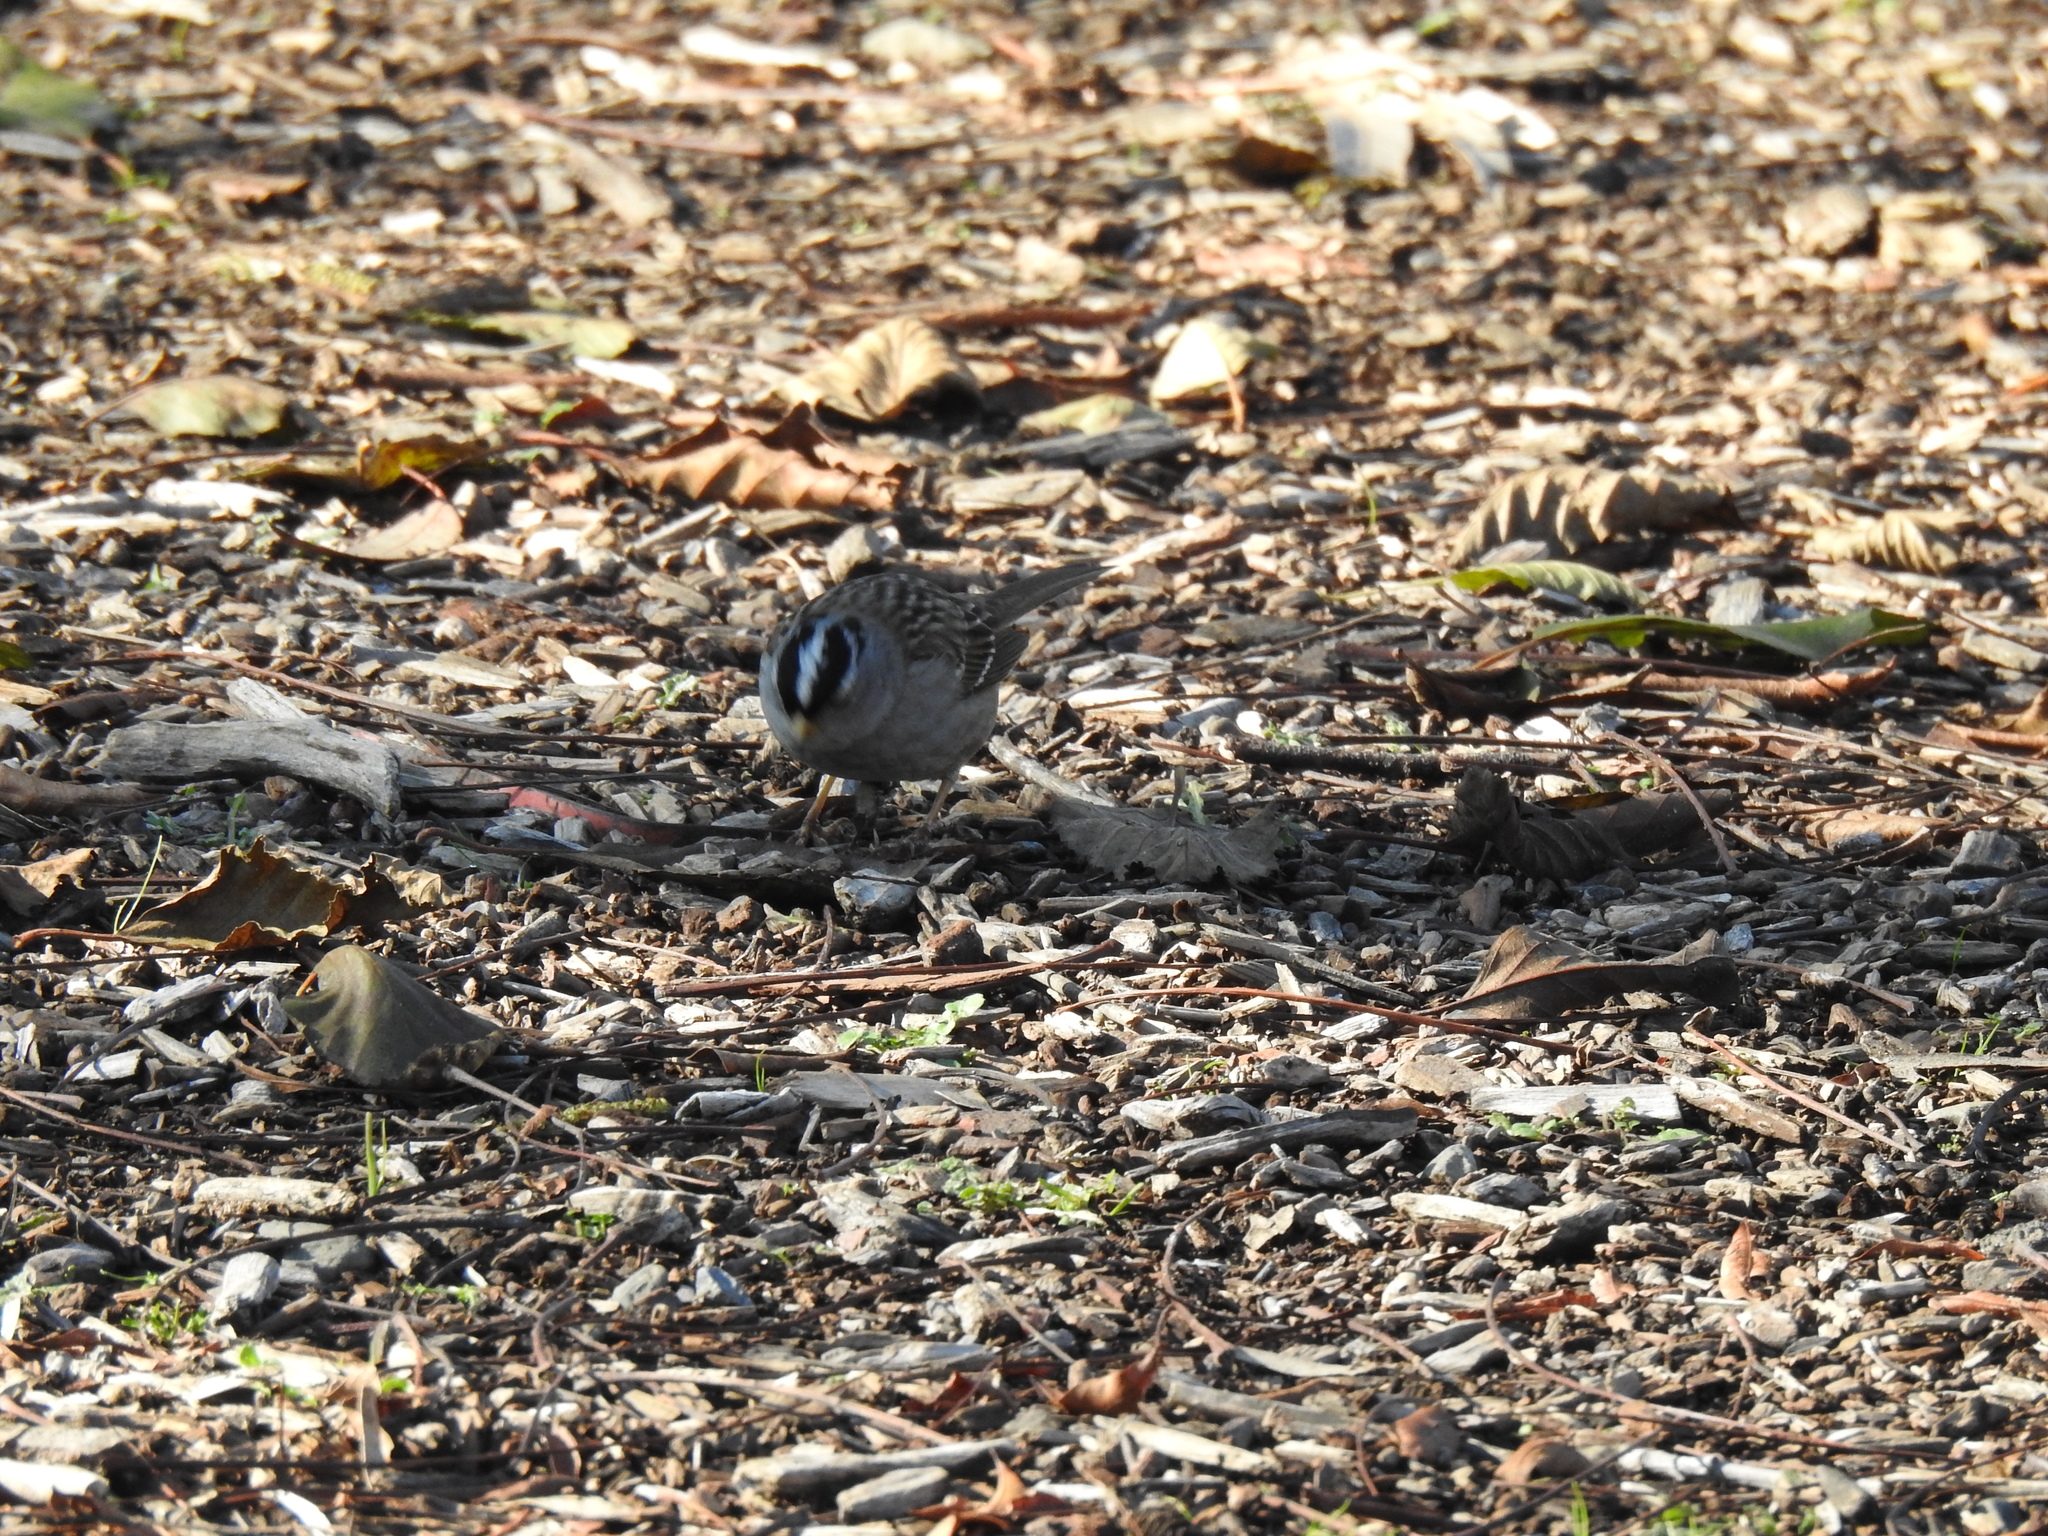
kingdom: Animalia
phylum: Chordata
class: Aves
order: Passeriformes
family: Passerellidae
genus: Zonotrichia
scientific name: Zonotrichia leucophrys
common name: White-crowned sparrow
